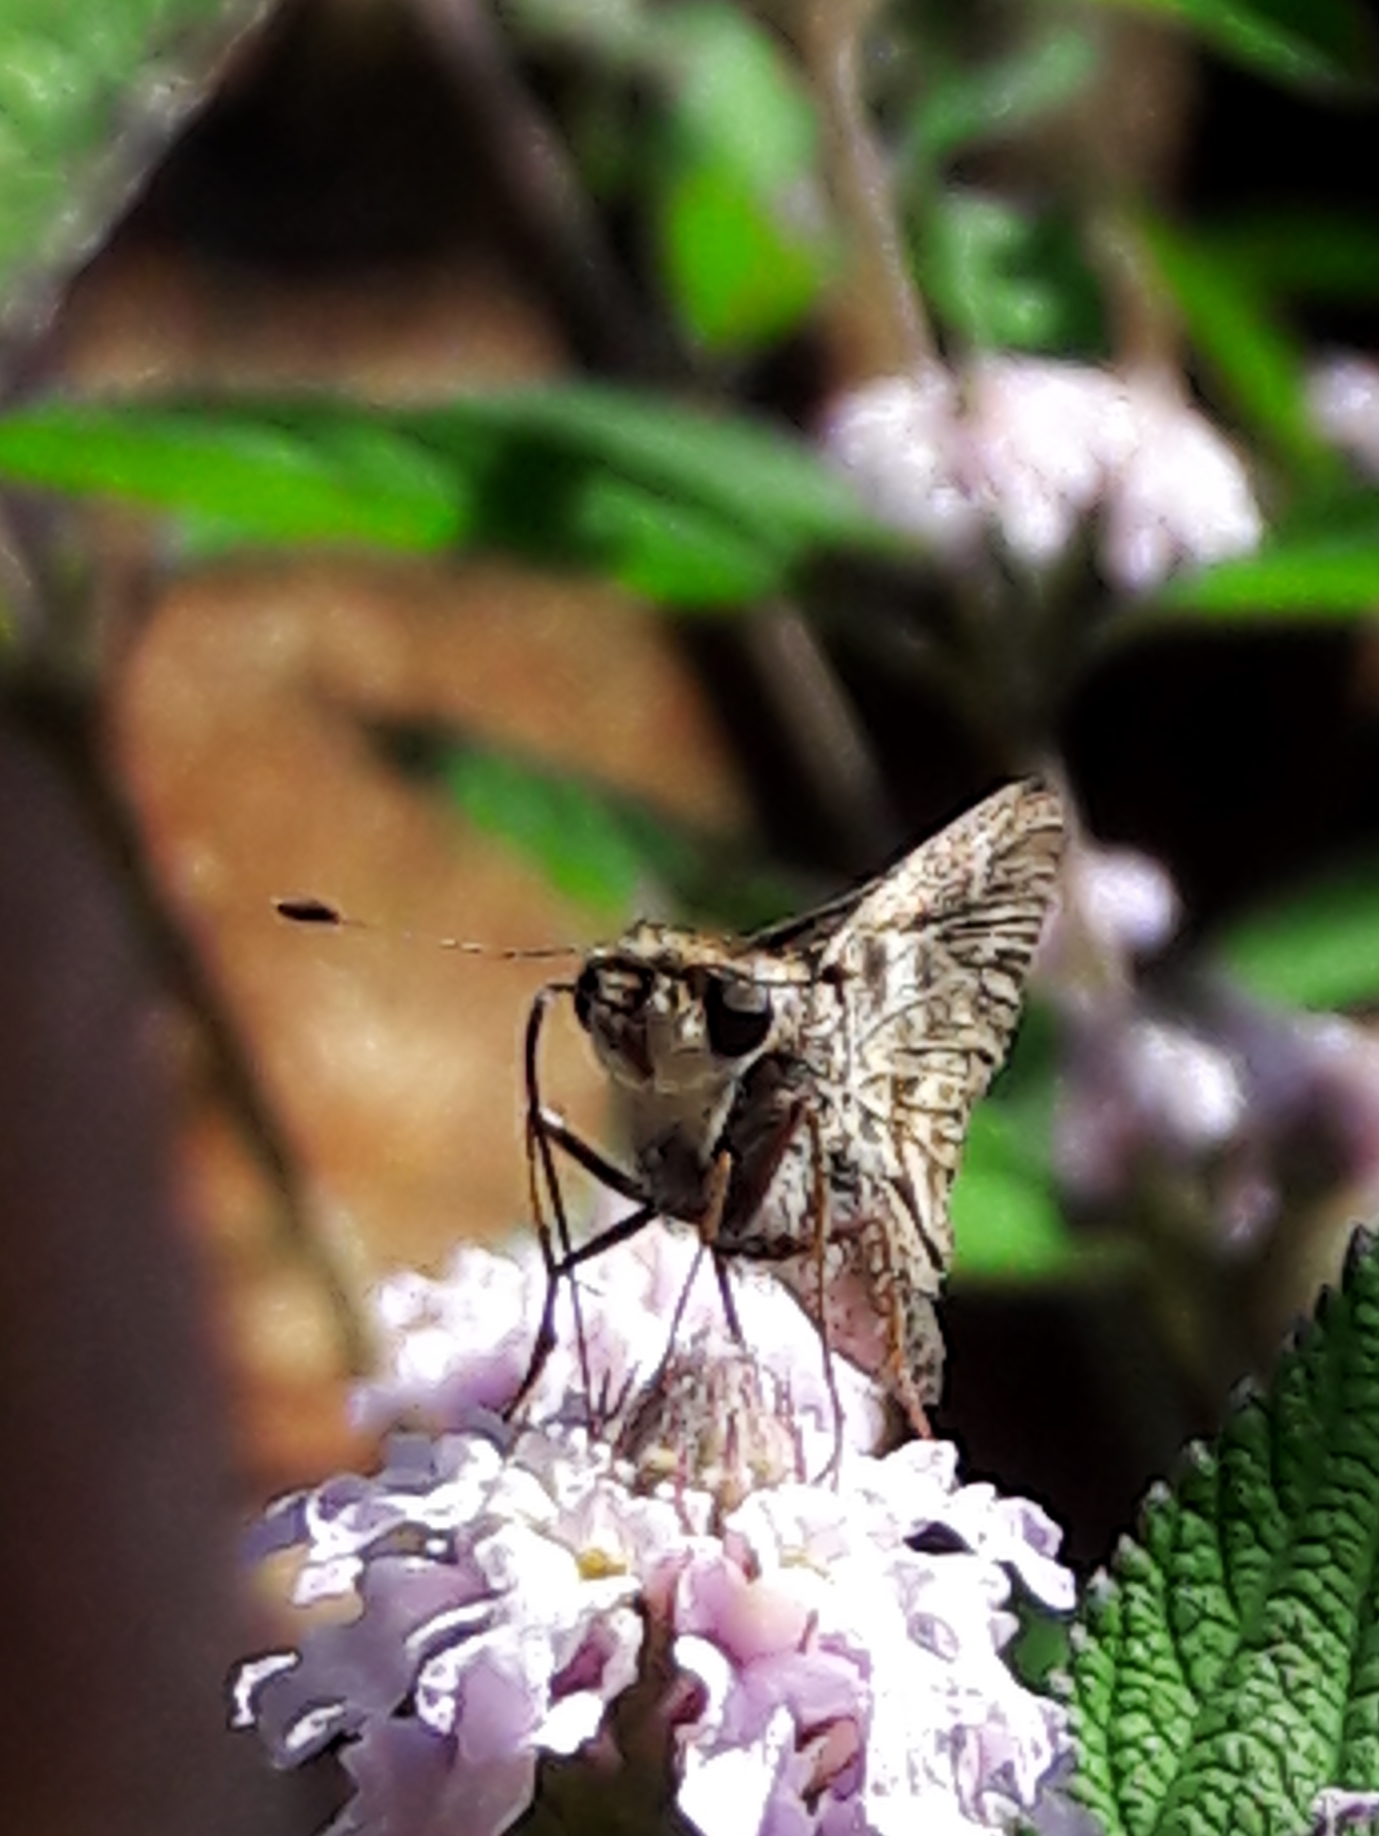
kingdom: Animalia
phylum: Arthropoda
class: Insecta
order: Lepidoptera
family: Hesperiidae
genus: Pompeius
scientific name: Pompeius pompeius
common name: Pompeius skipper
